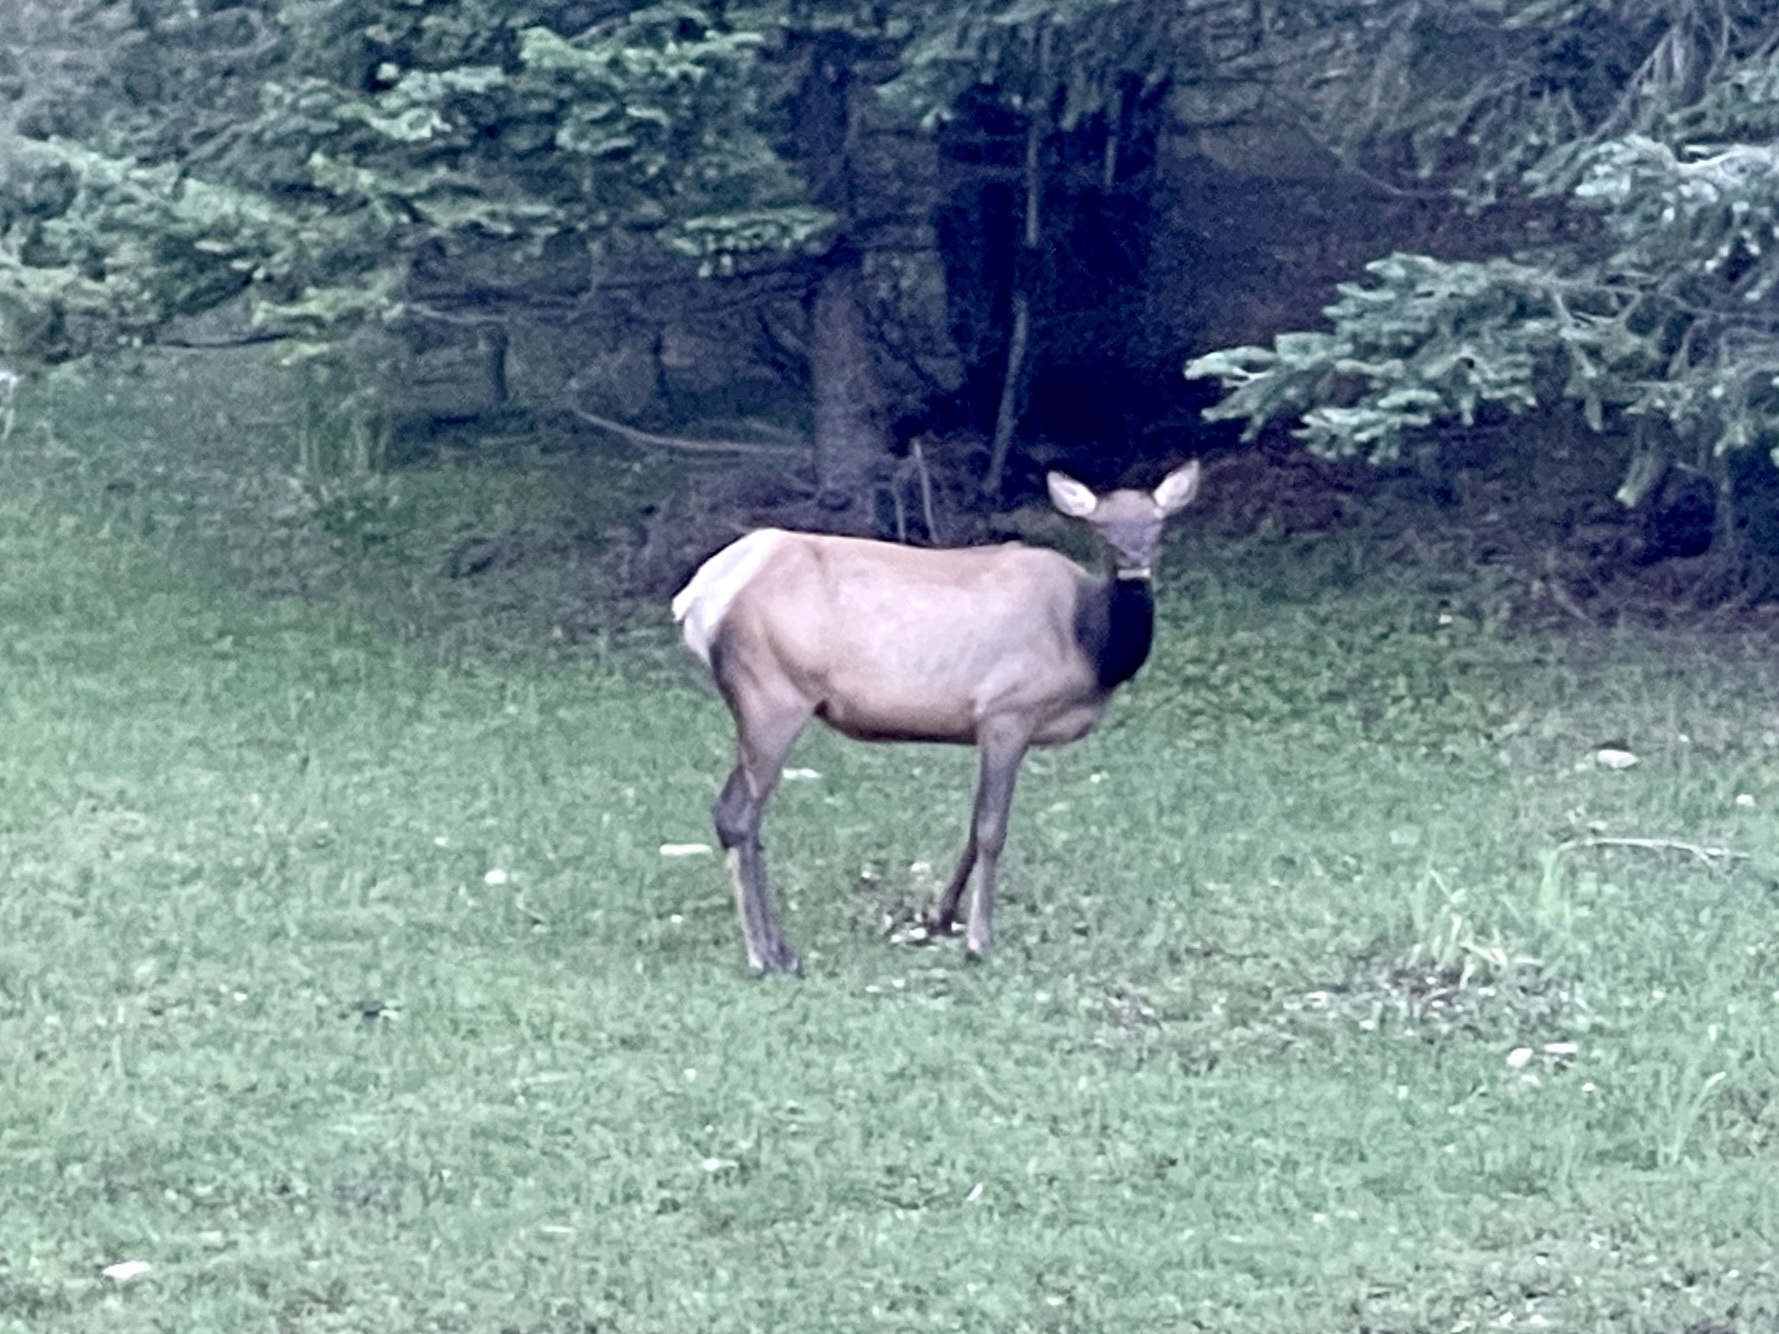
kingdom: Animalia
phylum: Chordata
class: Mammalia
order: Artiodactyla
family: Cervidae
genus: Cervus
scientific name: Cervus elaphus
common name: Red deer
